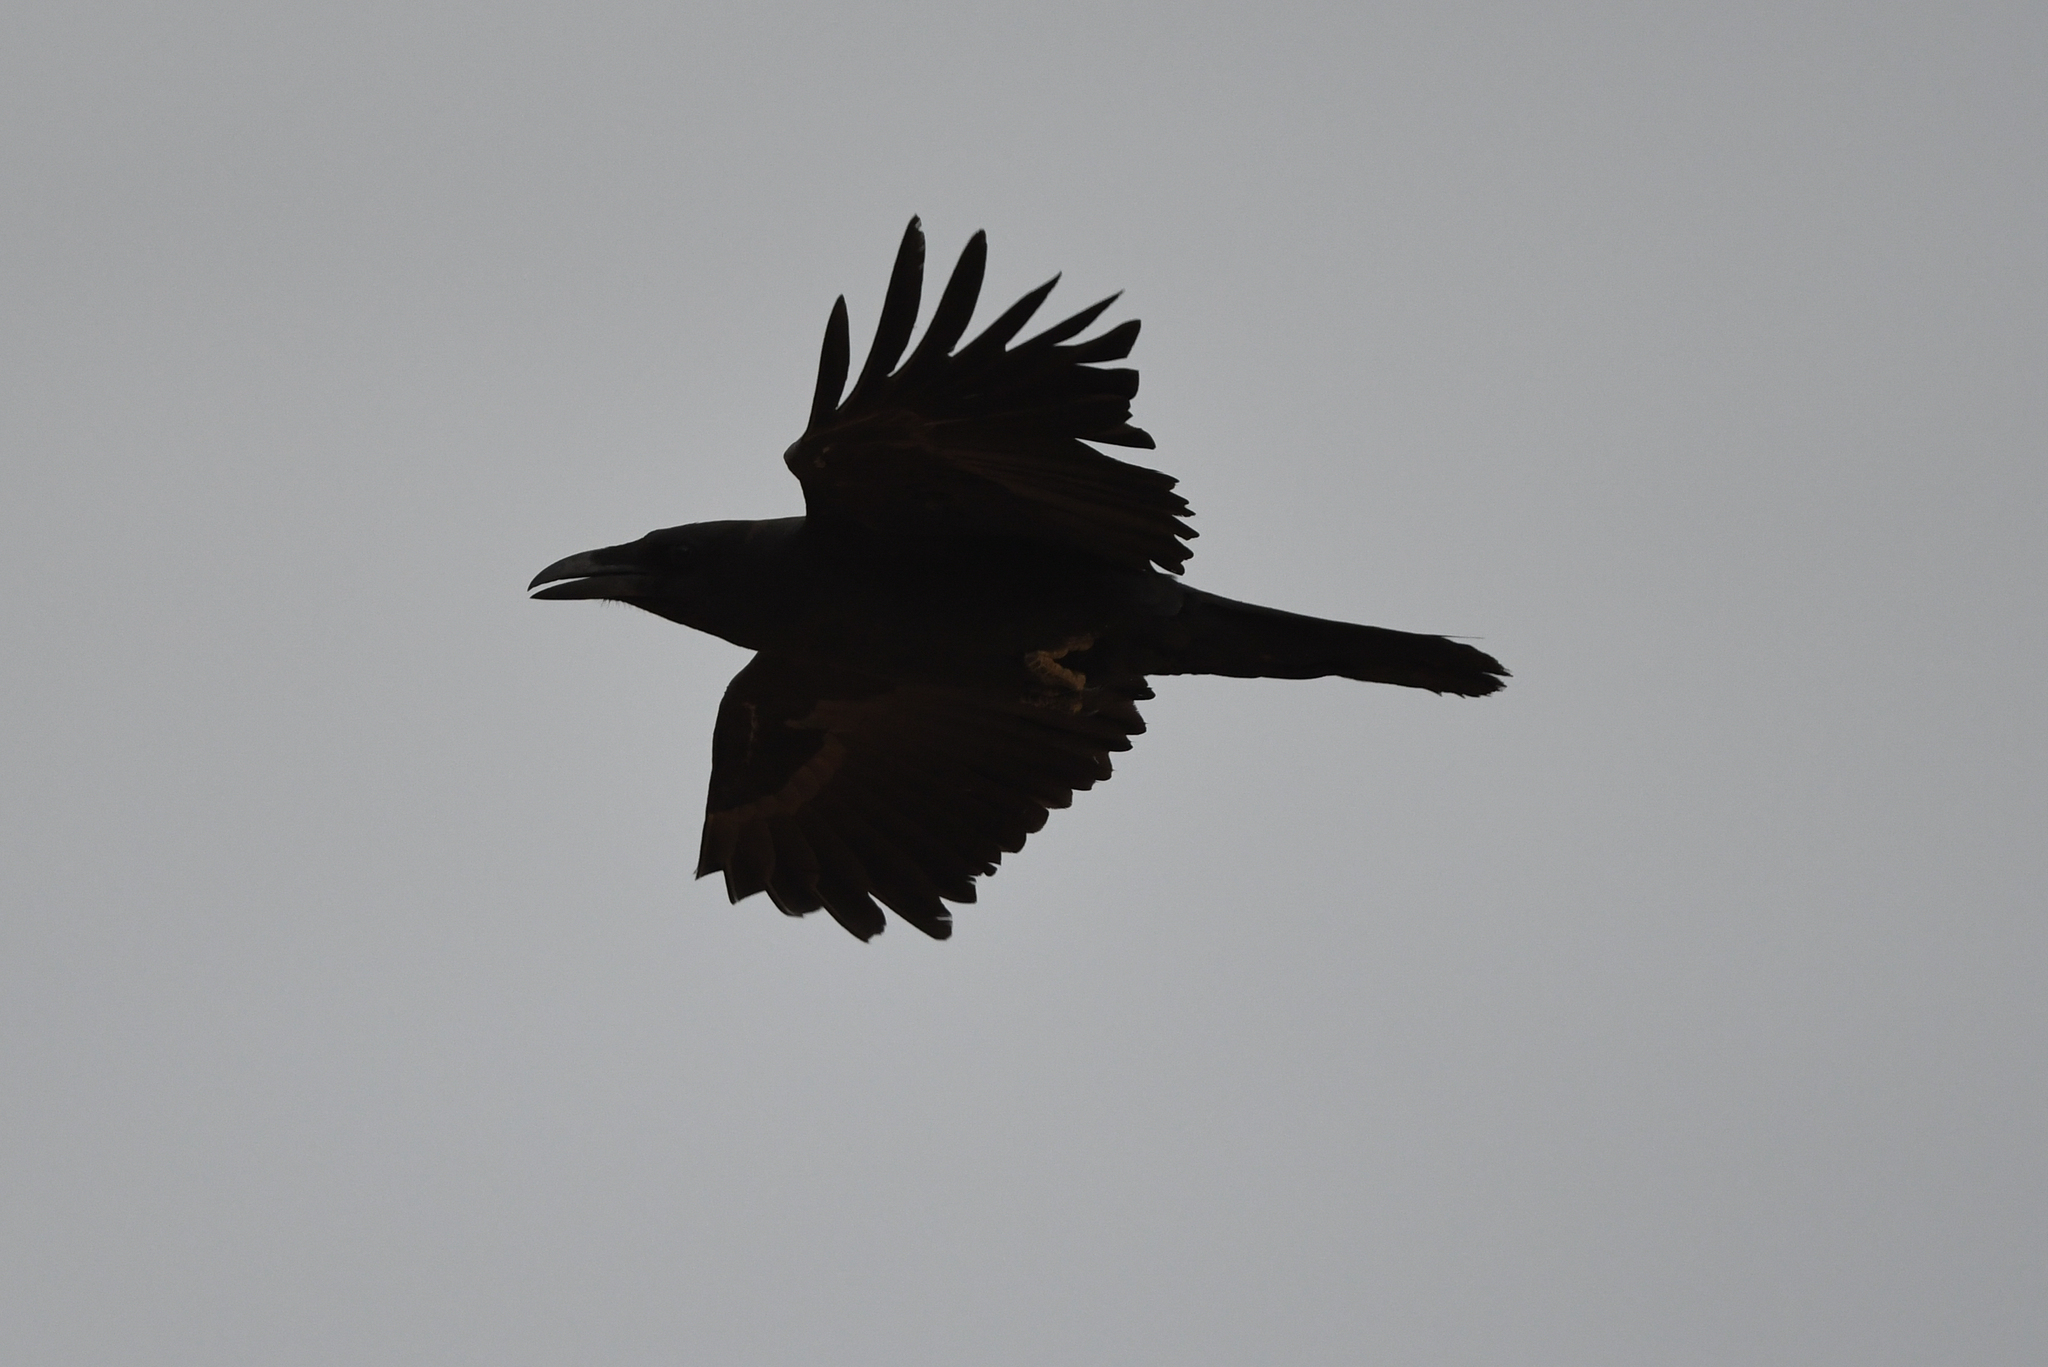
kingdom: Animalia
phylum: Chordata
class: Aves
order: Passeriformes
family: Corvidae
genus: Corvus
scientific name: Corvus ruficollis
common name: Brown-necked raven
